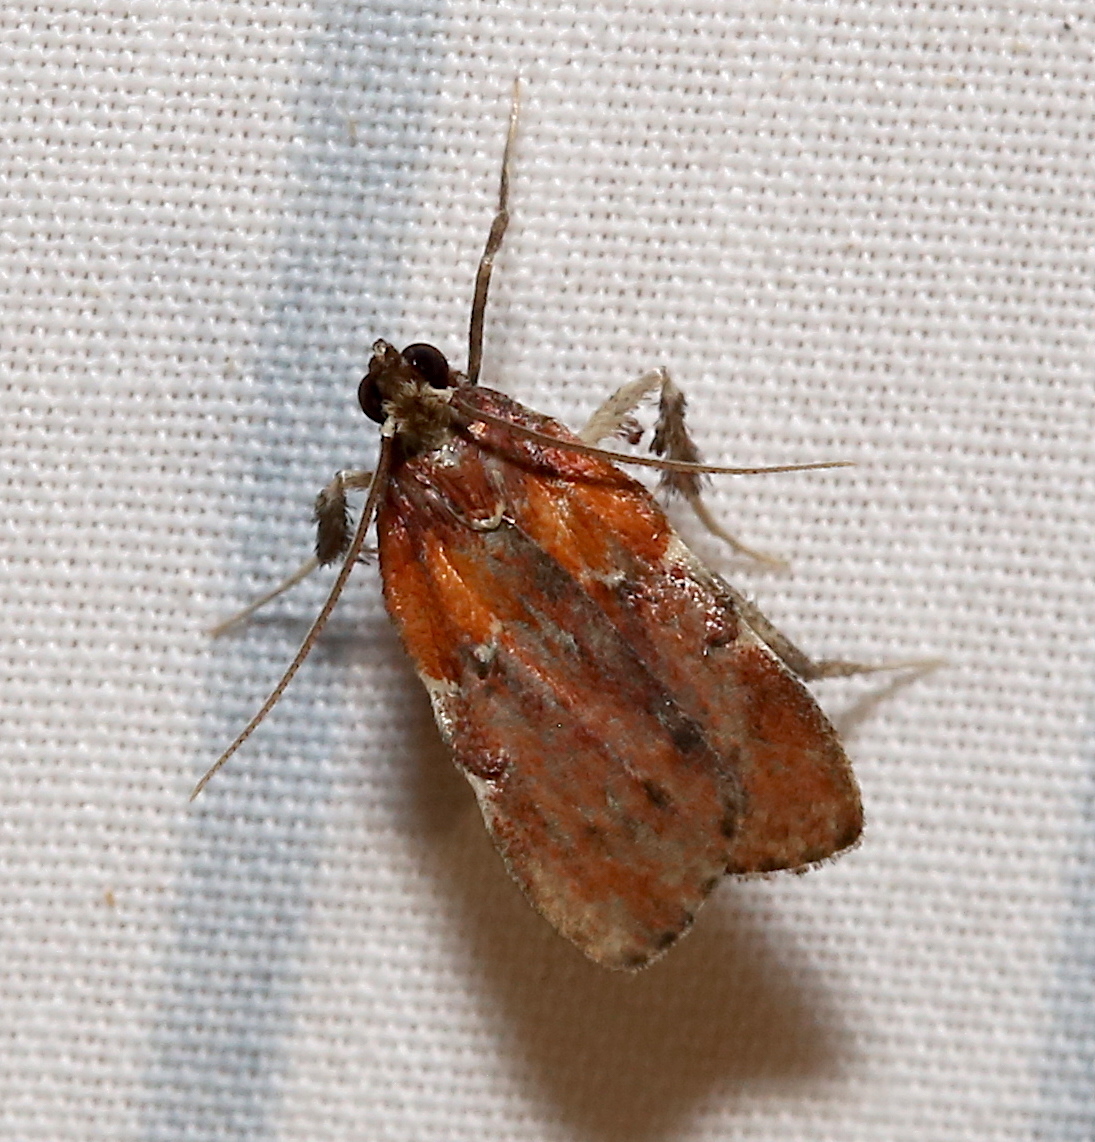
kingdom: Animalia
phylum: Arthropoda
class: Insecta
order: Lepidoptera
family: Pyralidae
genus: Galasa
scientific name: Galasa nigrinodis
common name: Boxwood leaftier moth
